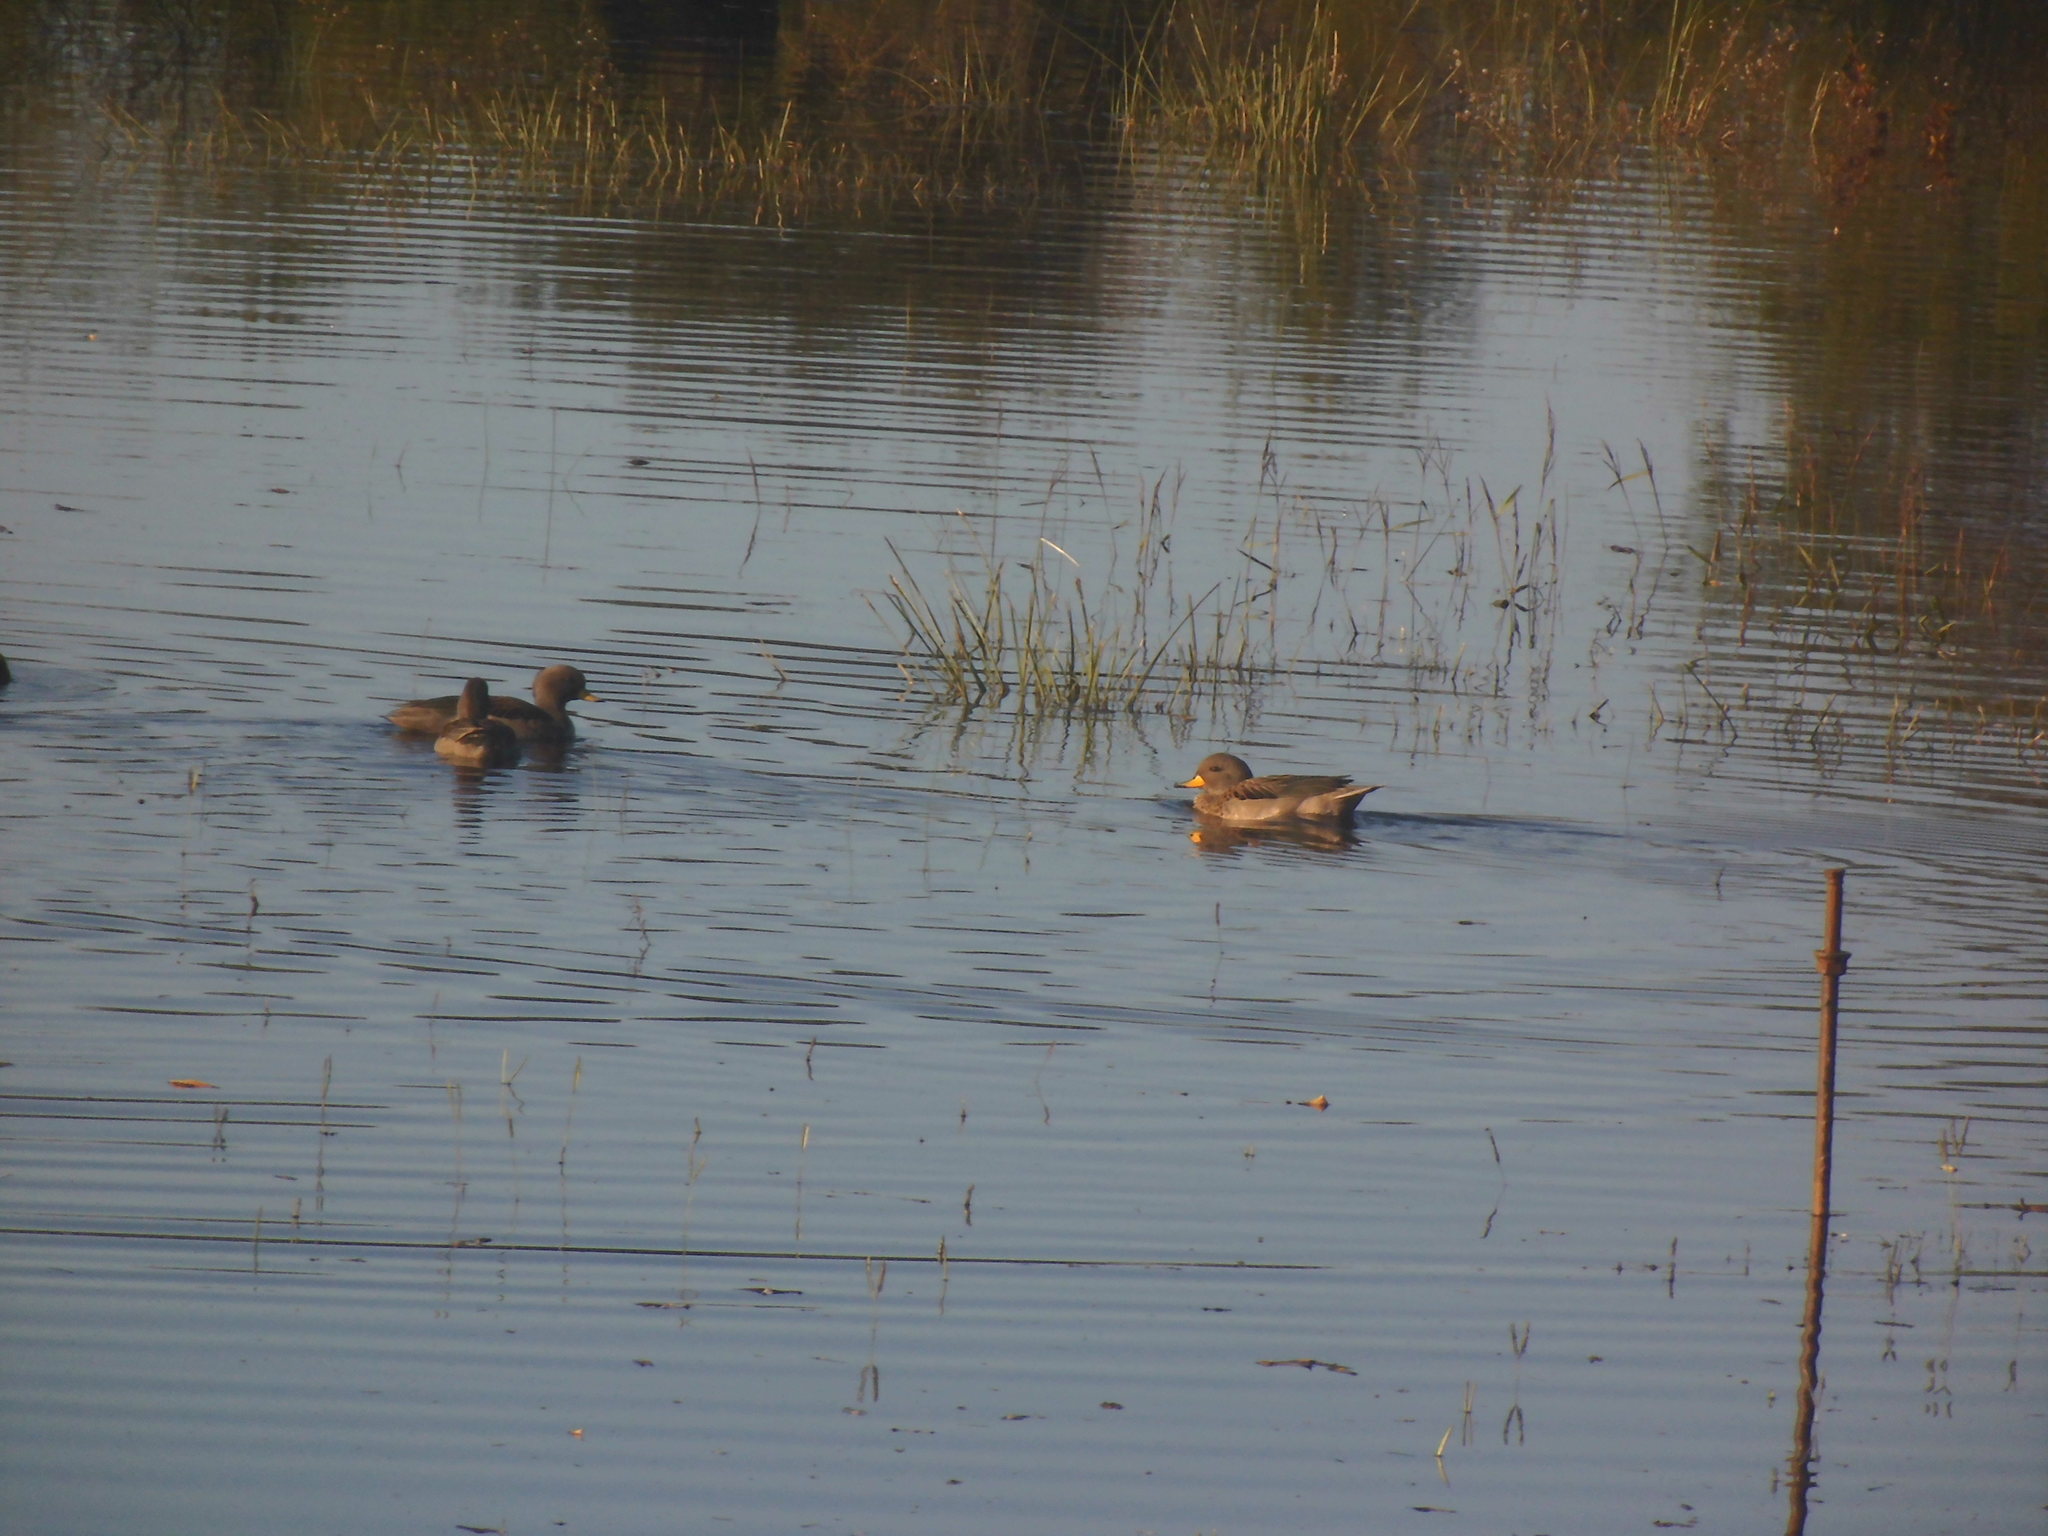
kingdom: Animalia
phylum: Chordata
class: Aves
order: Anseriformes
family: Anatidae
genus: Anas
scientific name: Anas flavirostris
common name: Yellow-billed teal
